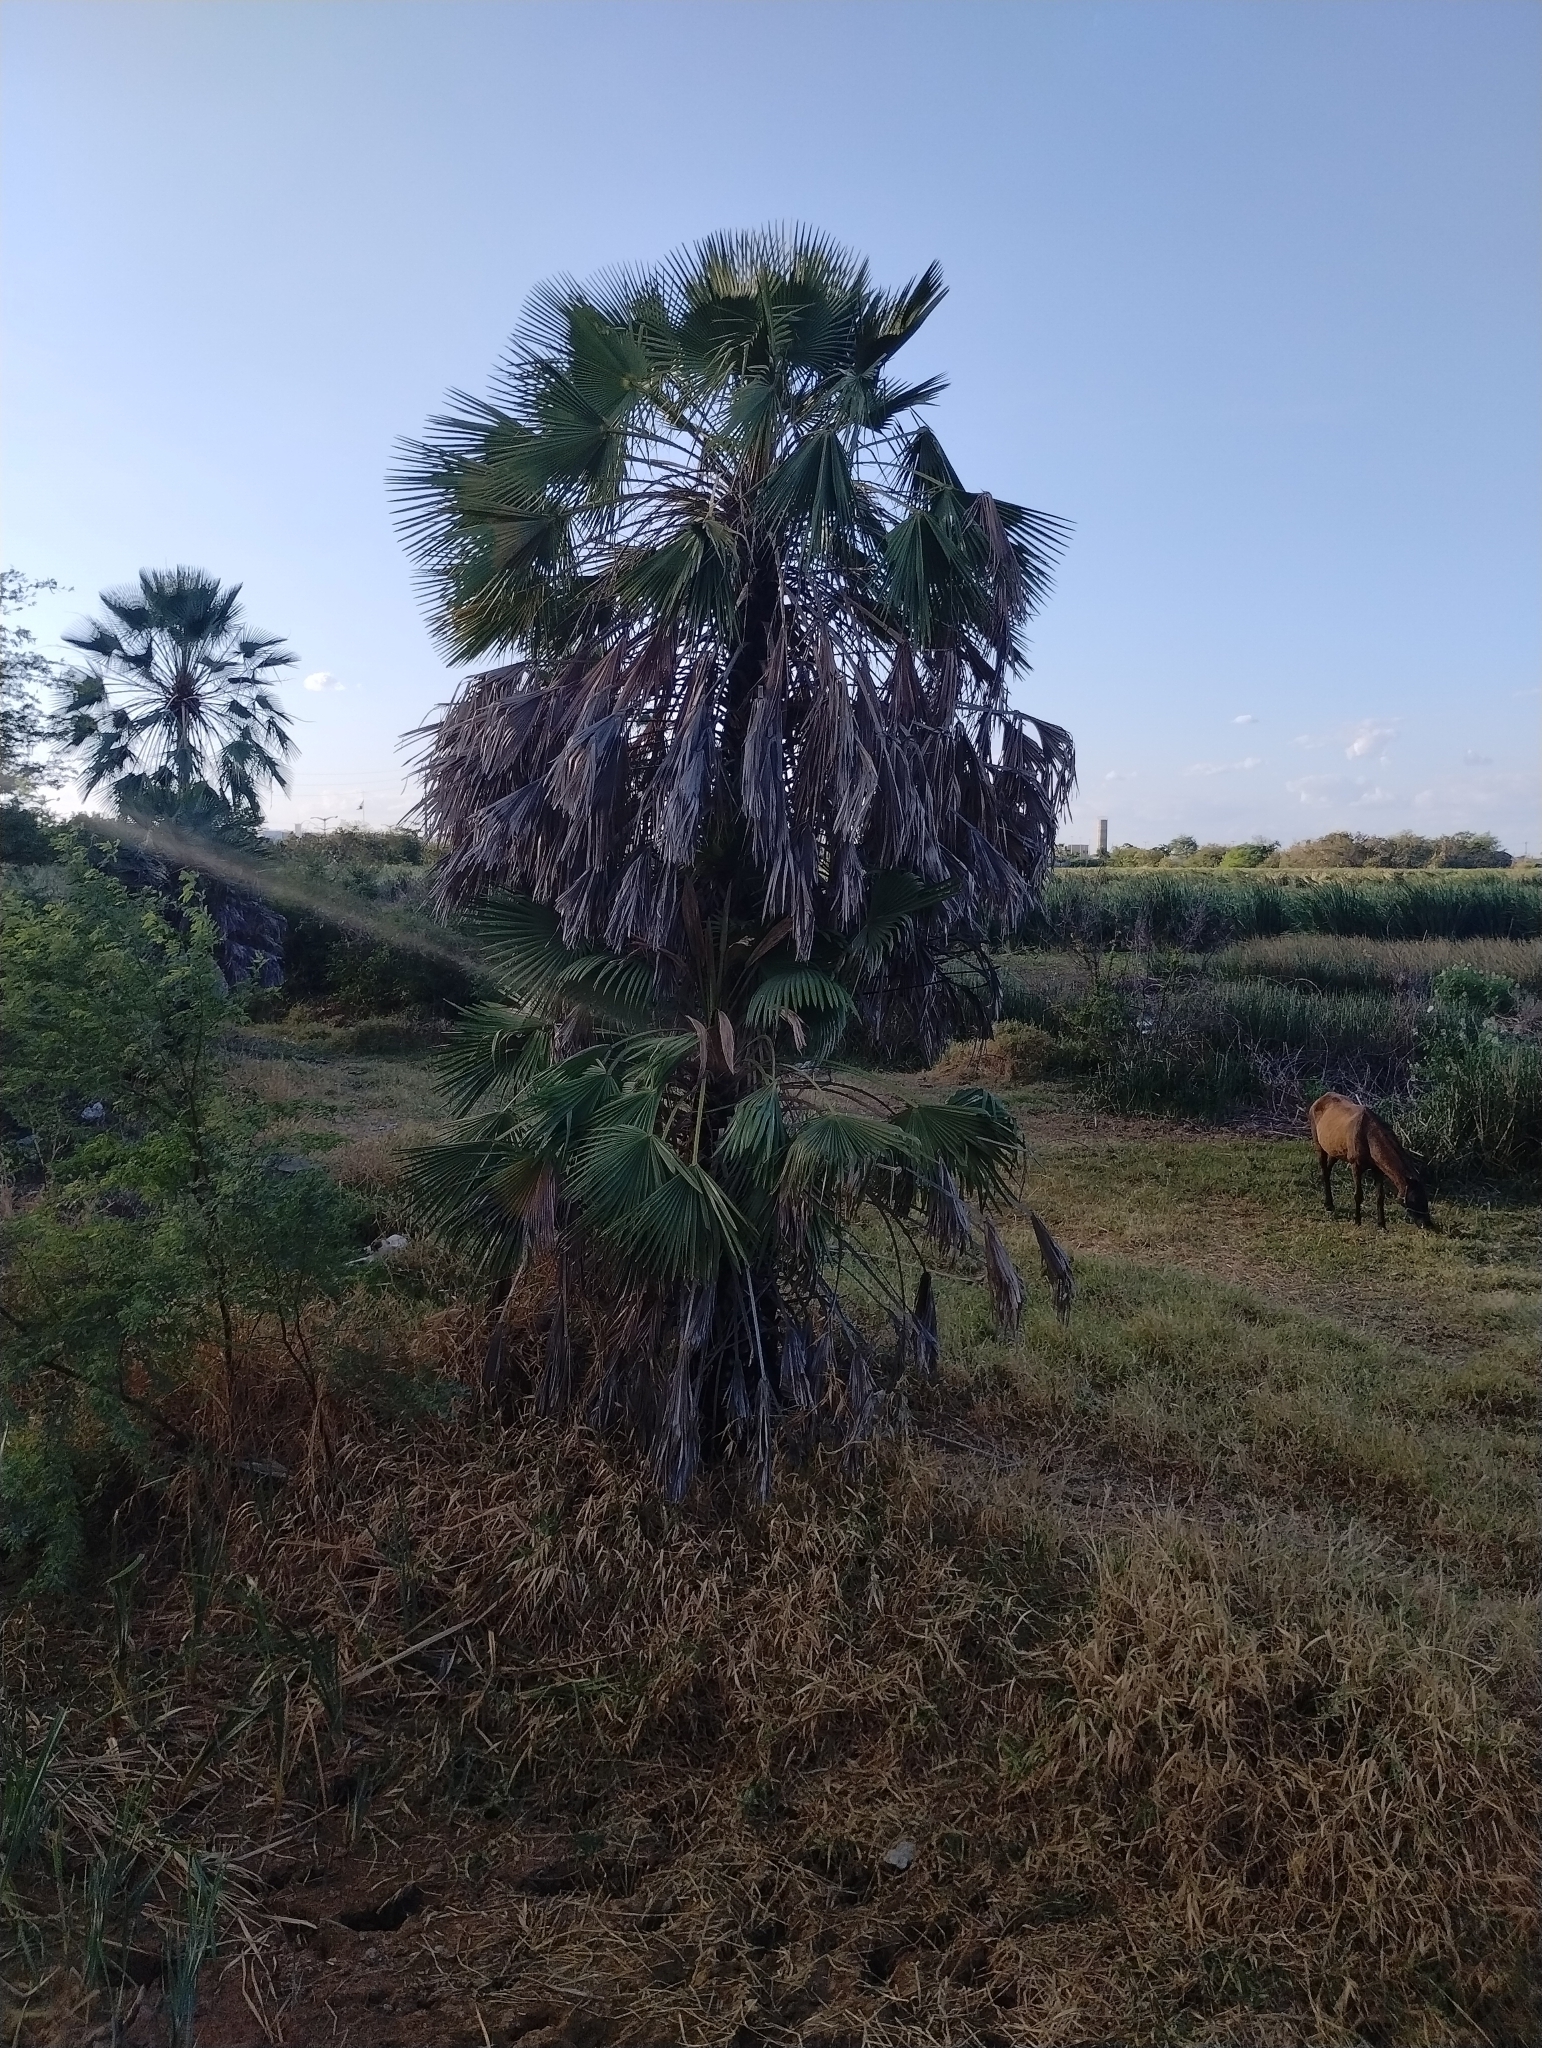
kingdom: Plantae
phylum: Tracheophyta
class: Liliopsida
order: Arecales
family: Arecaceae
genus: Copernicia
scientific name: Copernicia prunifera
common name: Carnauba palm
